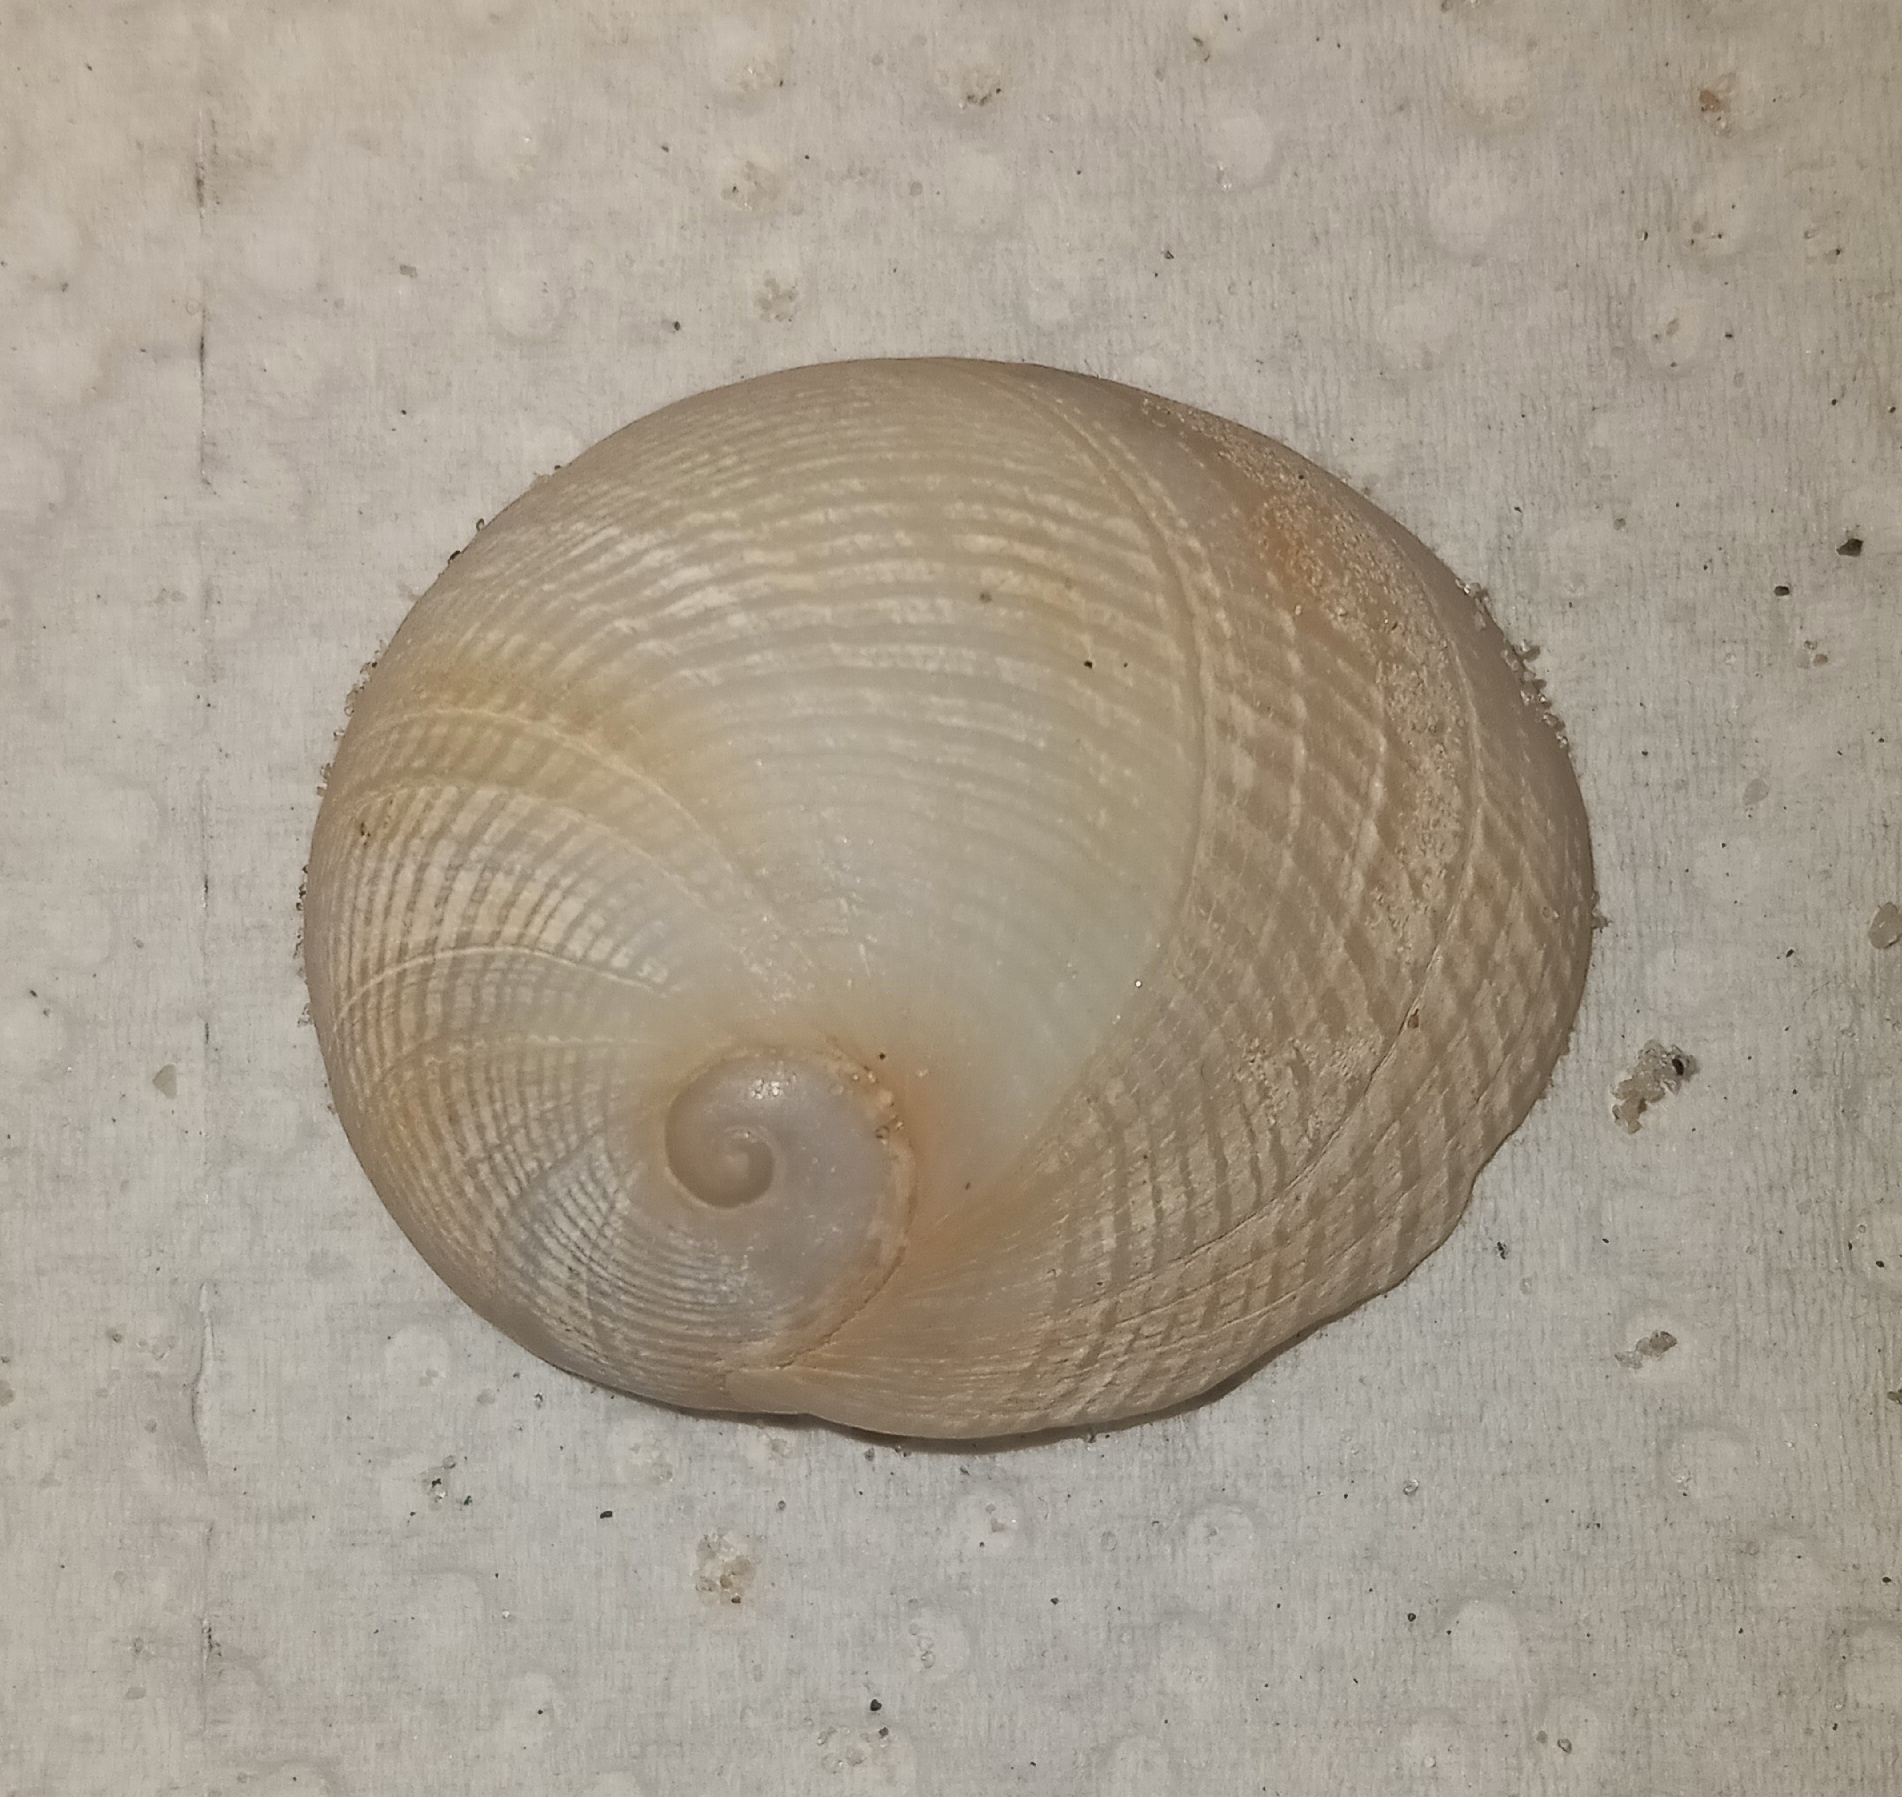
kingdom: Animalia
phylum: Mollusca
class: Gastropoda
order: Littorinimorpha
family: Naticidae
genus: Sinum
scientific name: Sinum perspectivum
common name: White baby ear
